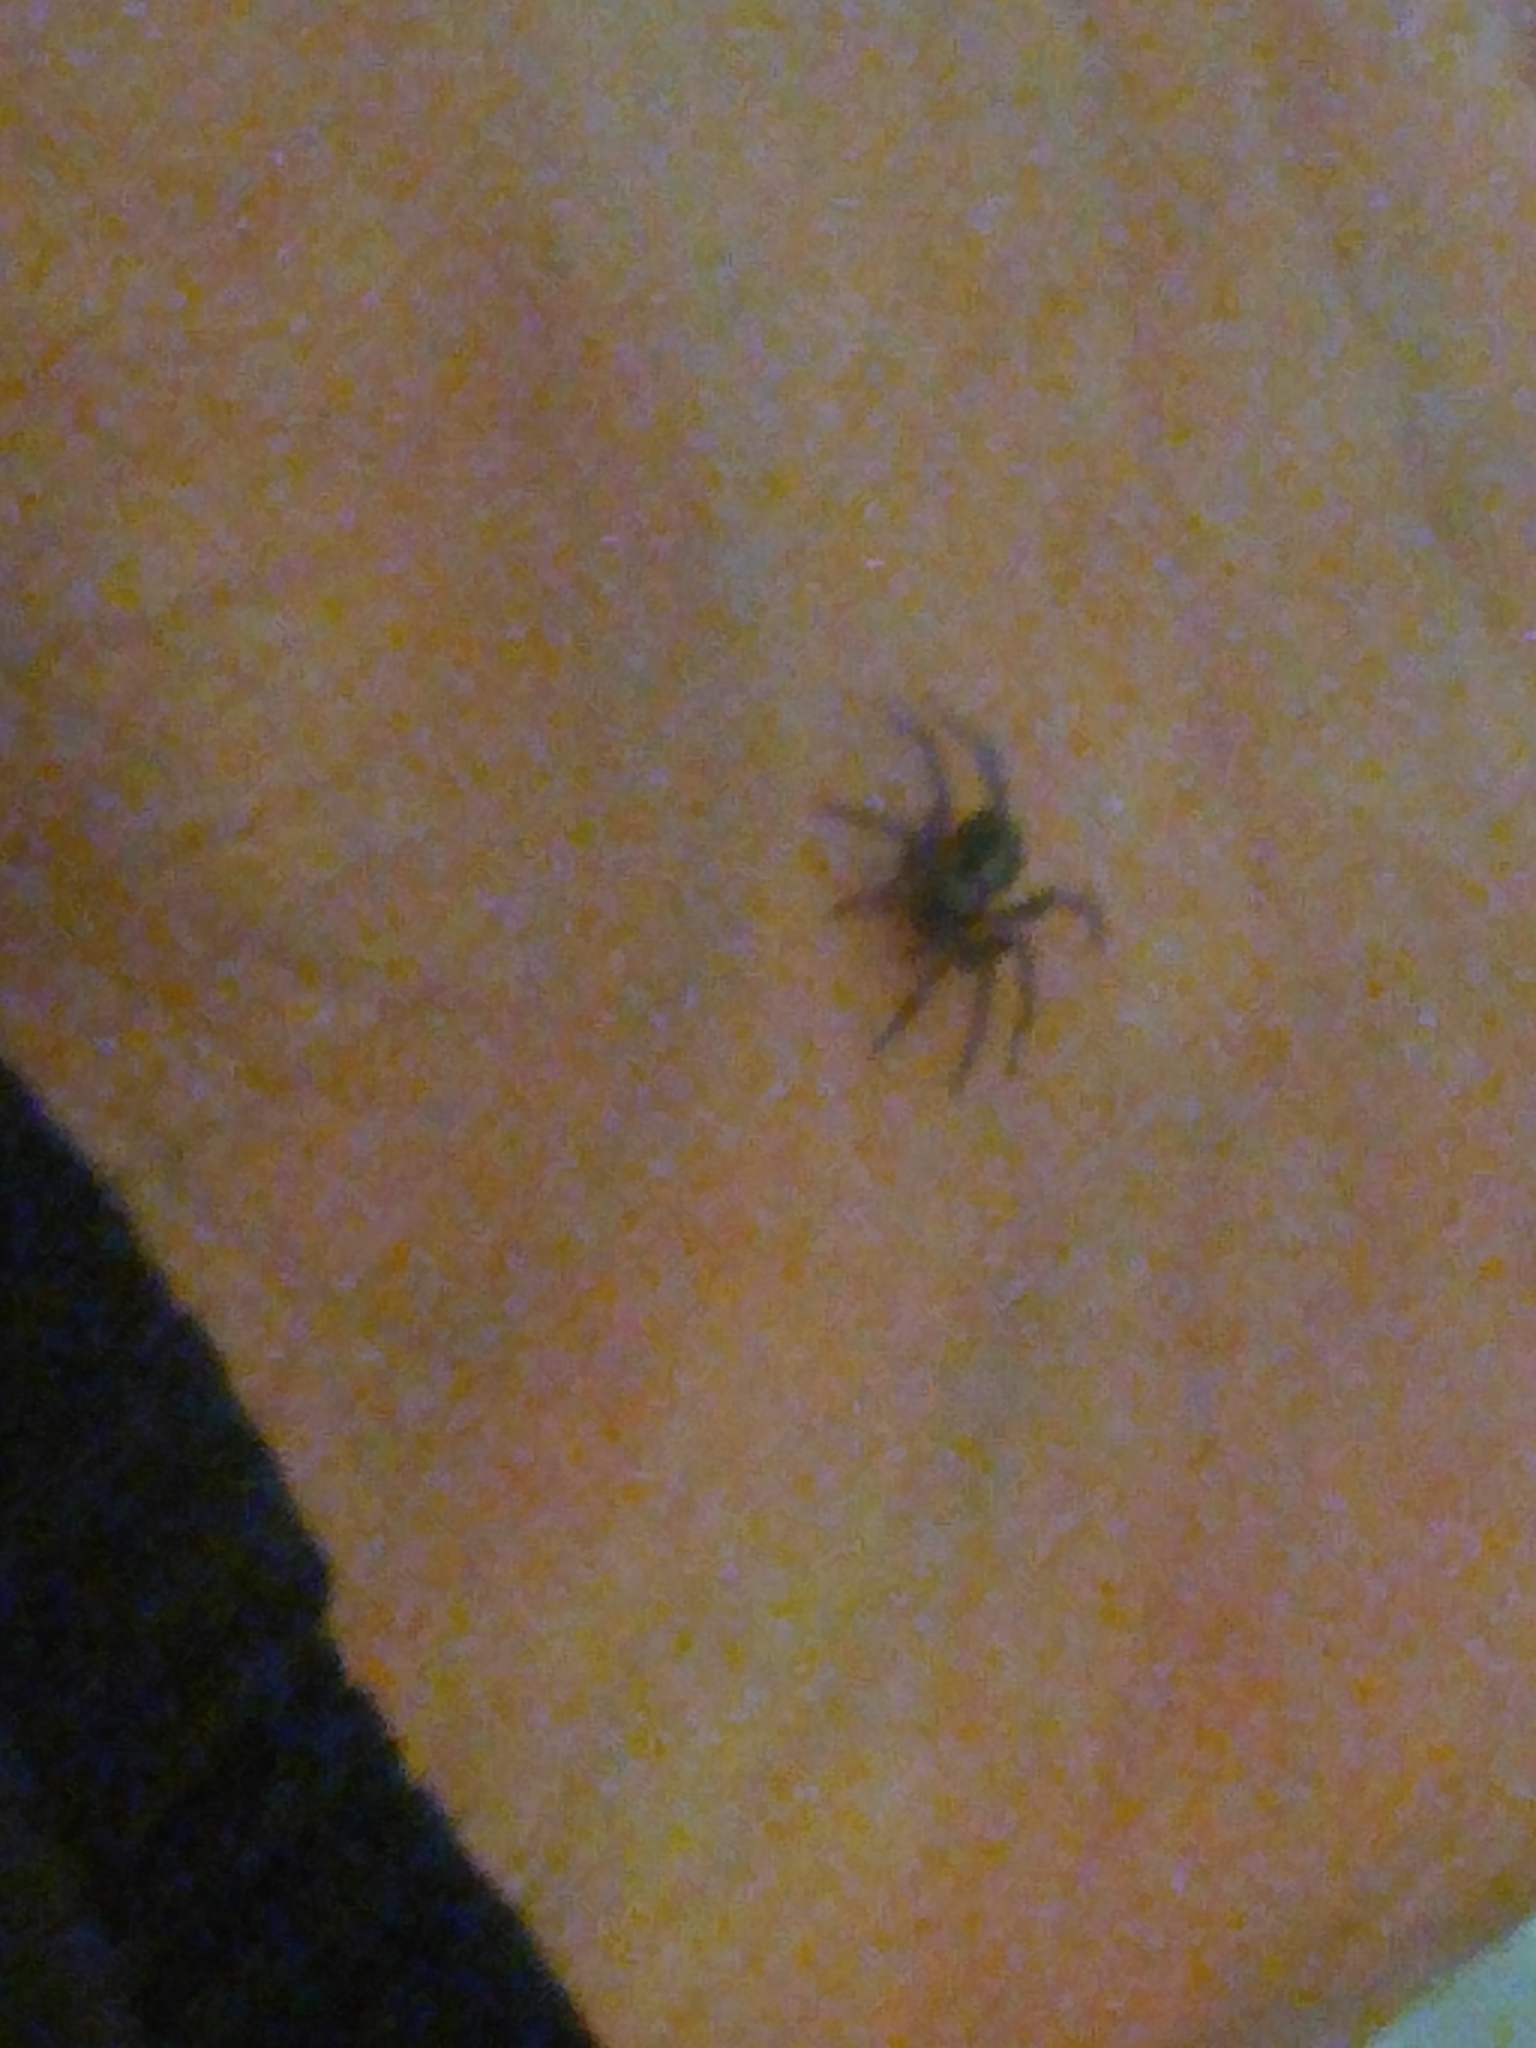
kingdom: Animalia
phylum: Arthropoda
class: Arachnida
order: Araneae
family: Gnaphosidae
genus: Herpyllus
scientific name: Herpyllus ecclesiasticus
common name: Eastern parson spider
